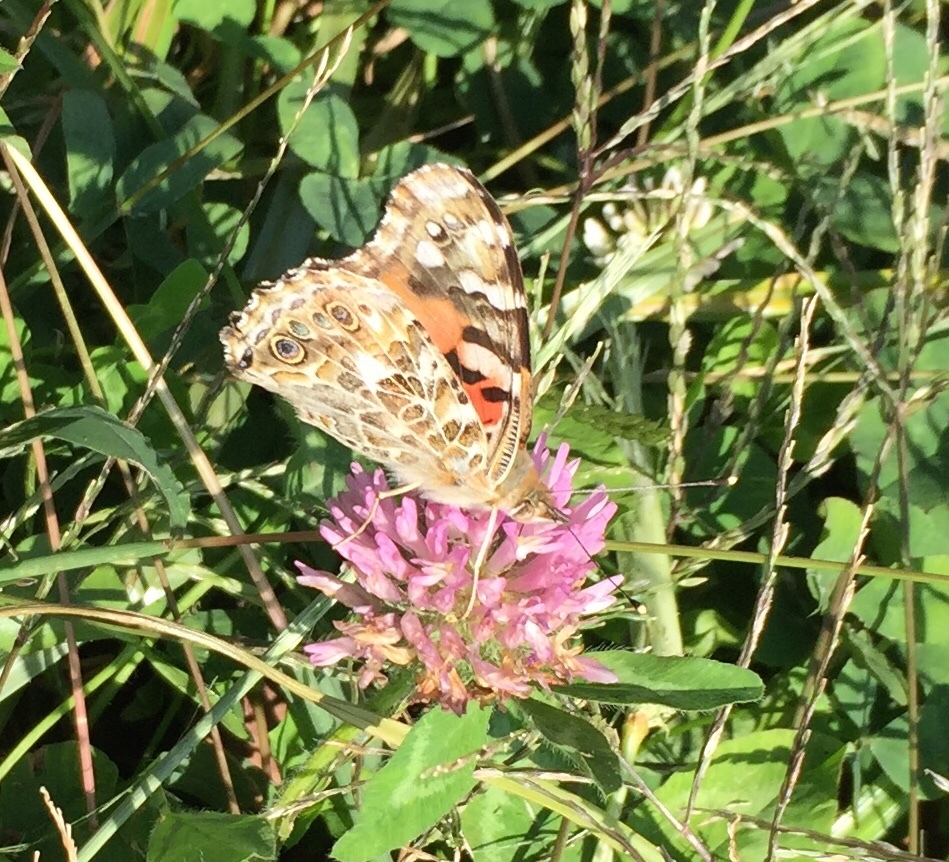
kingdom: Animalia
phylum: Arthropoda
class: Insecta
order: Lepidoptera
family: Nymphalidae
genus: Vanessa
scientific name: Vanessa cardui
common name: Painted lady
